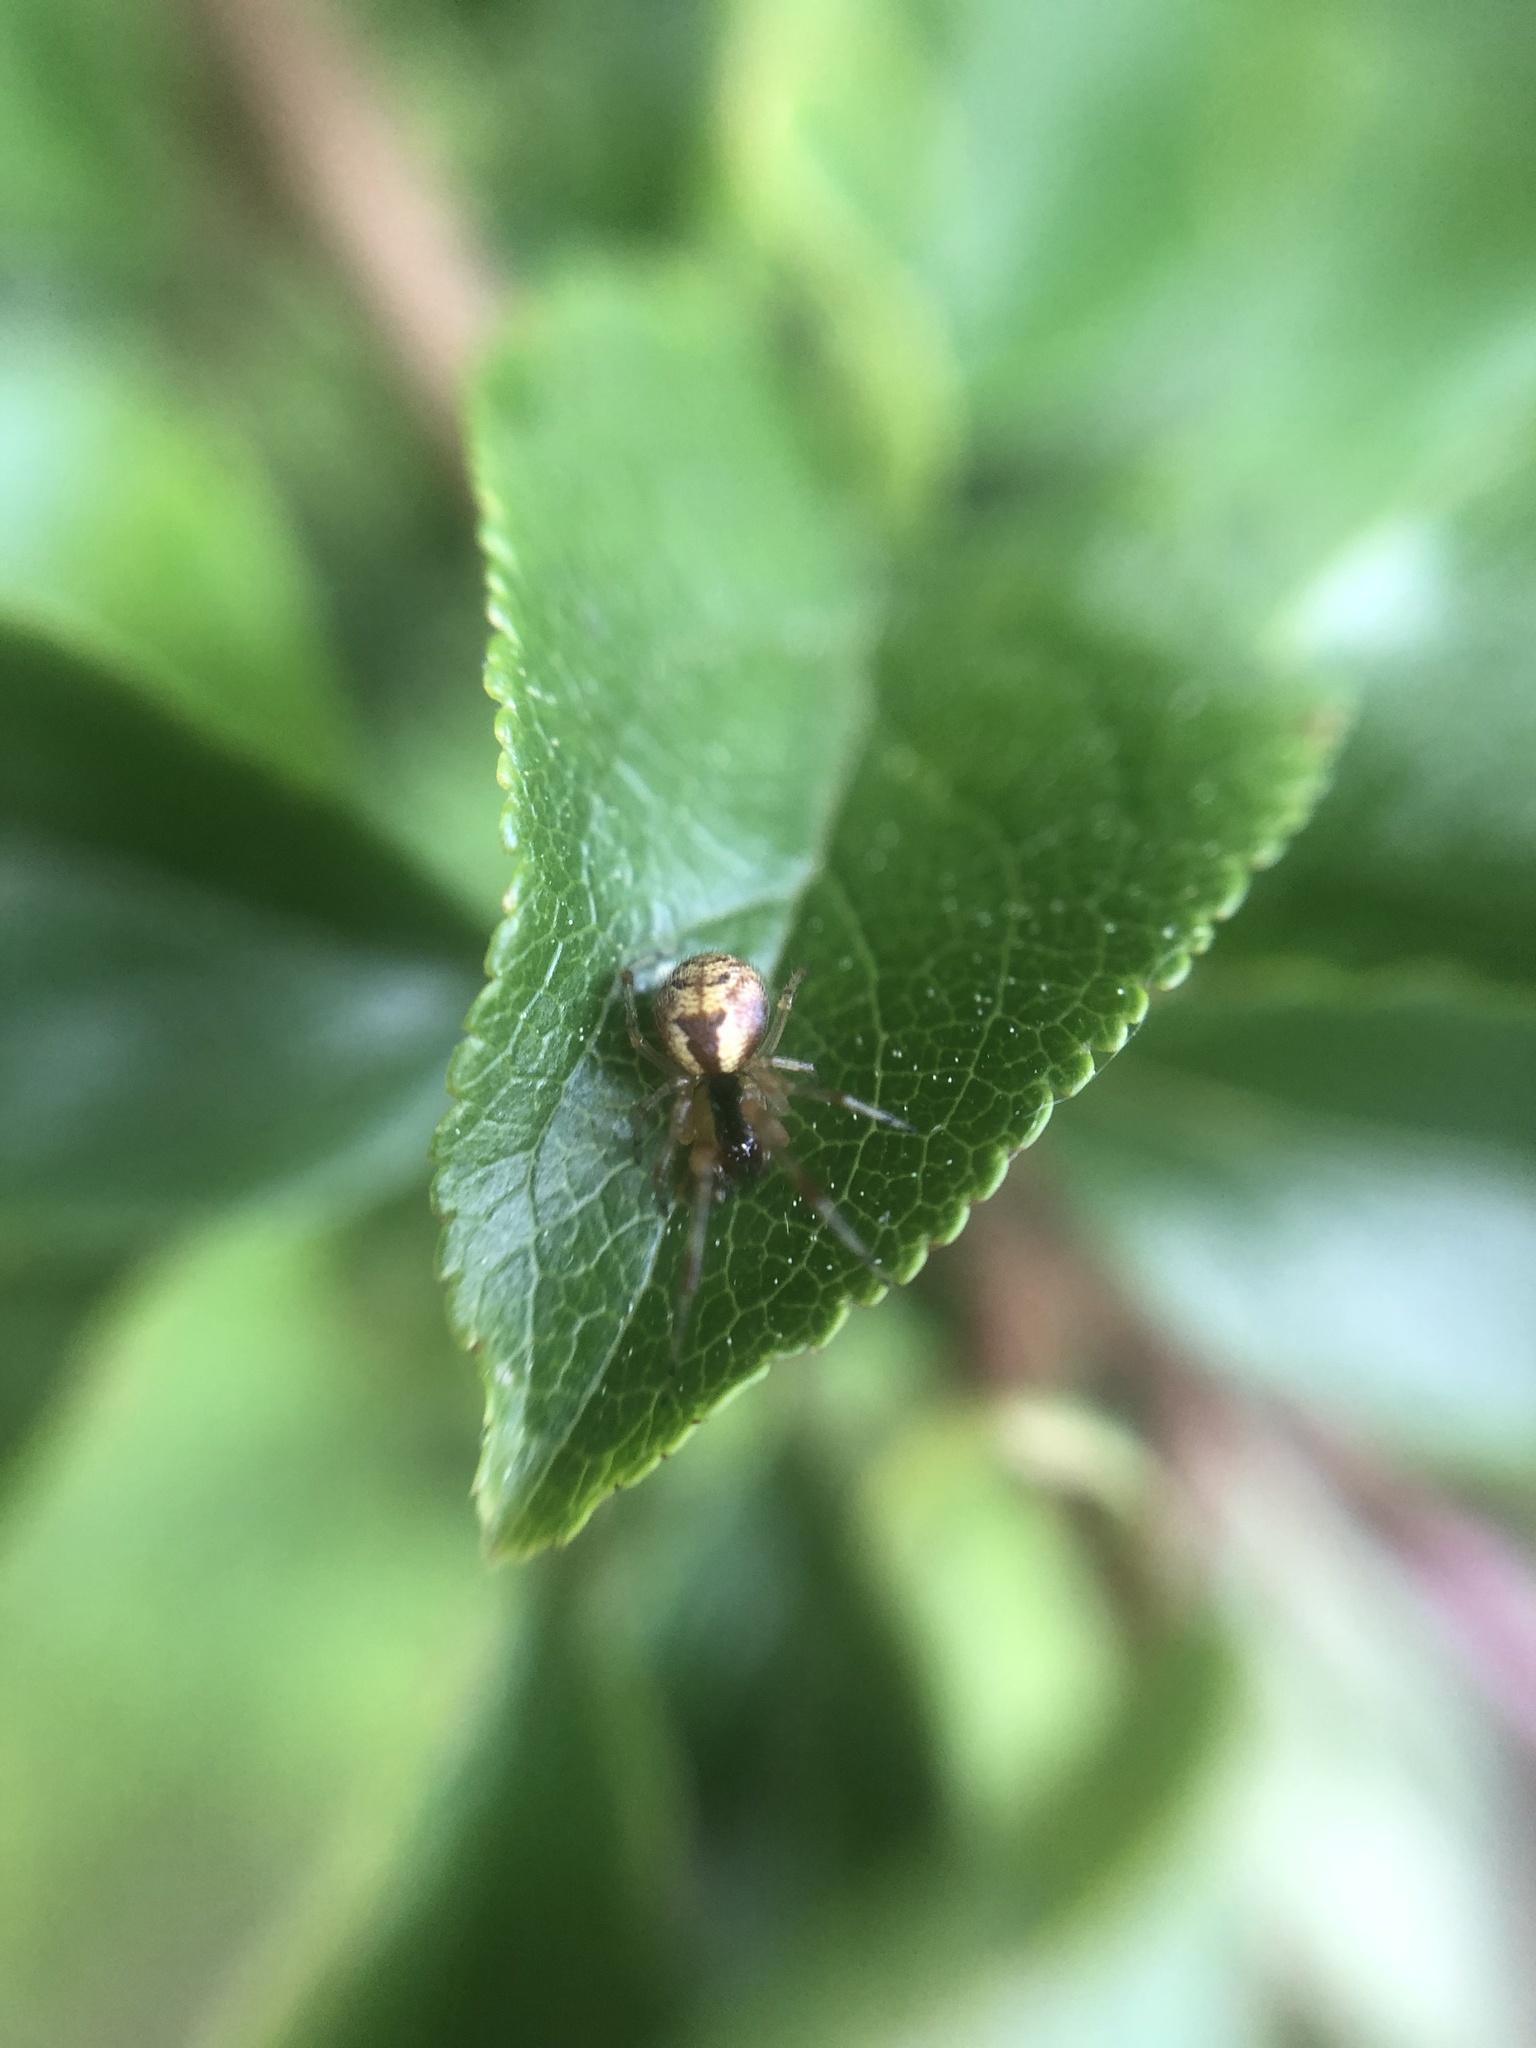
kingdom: Animalia
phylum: Arthropoda
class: Arachnida
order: Araneae
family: Theridiidae
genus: Anelosimus
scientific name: Anelosimus vittatus
